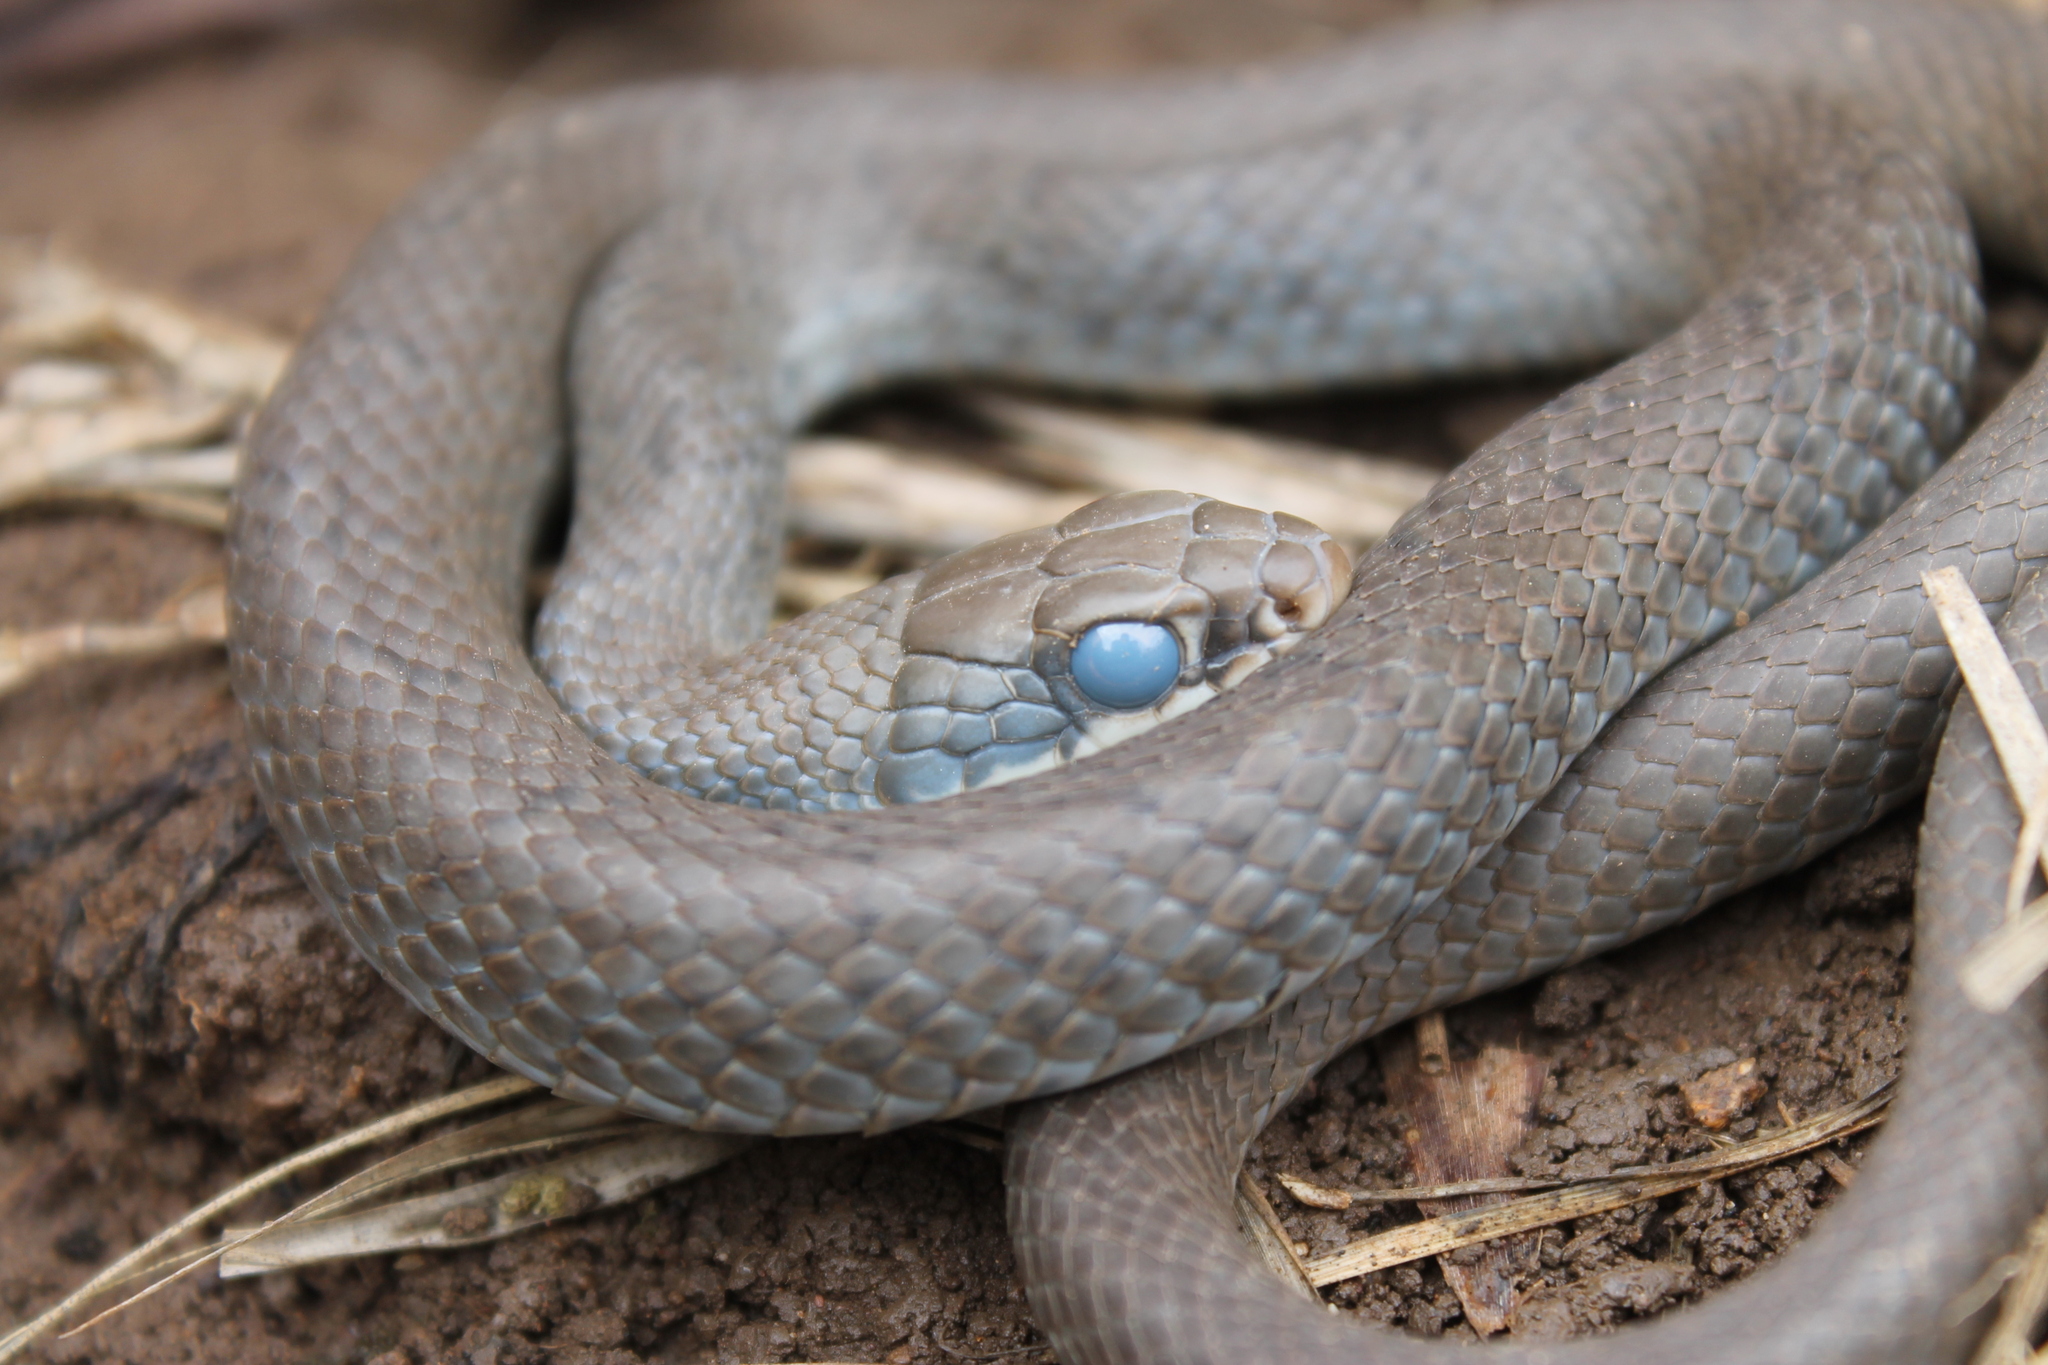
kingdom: Animalia
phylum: Chordata
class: Squamata
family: Colubridae
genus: Coluber
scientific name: Coluber constrictor
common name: Eastern racer
